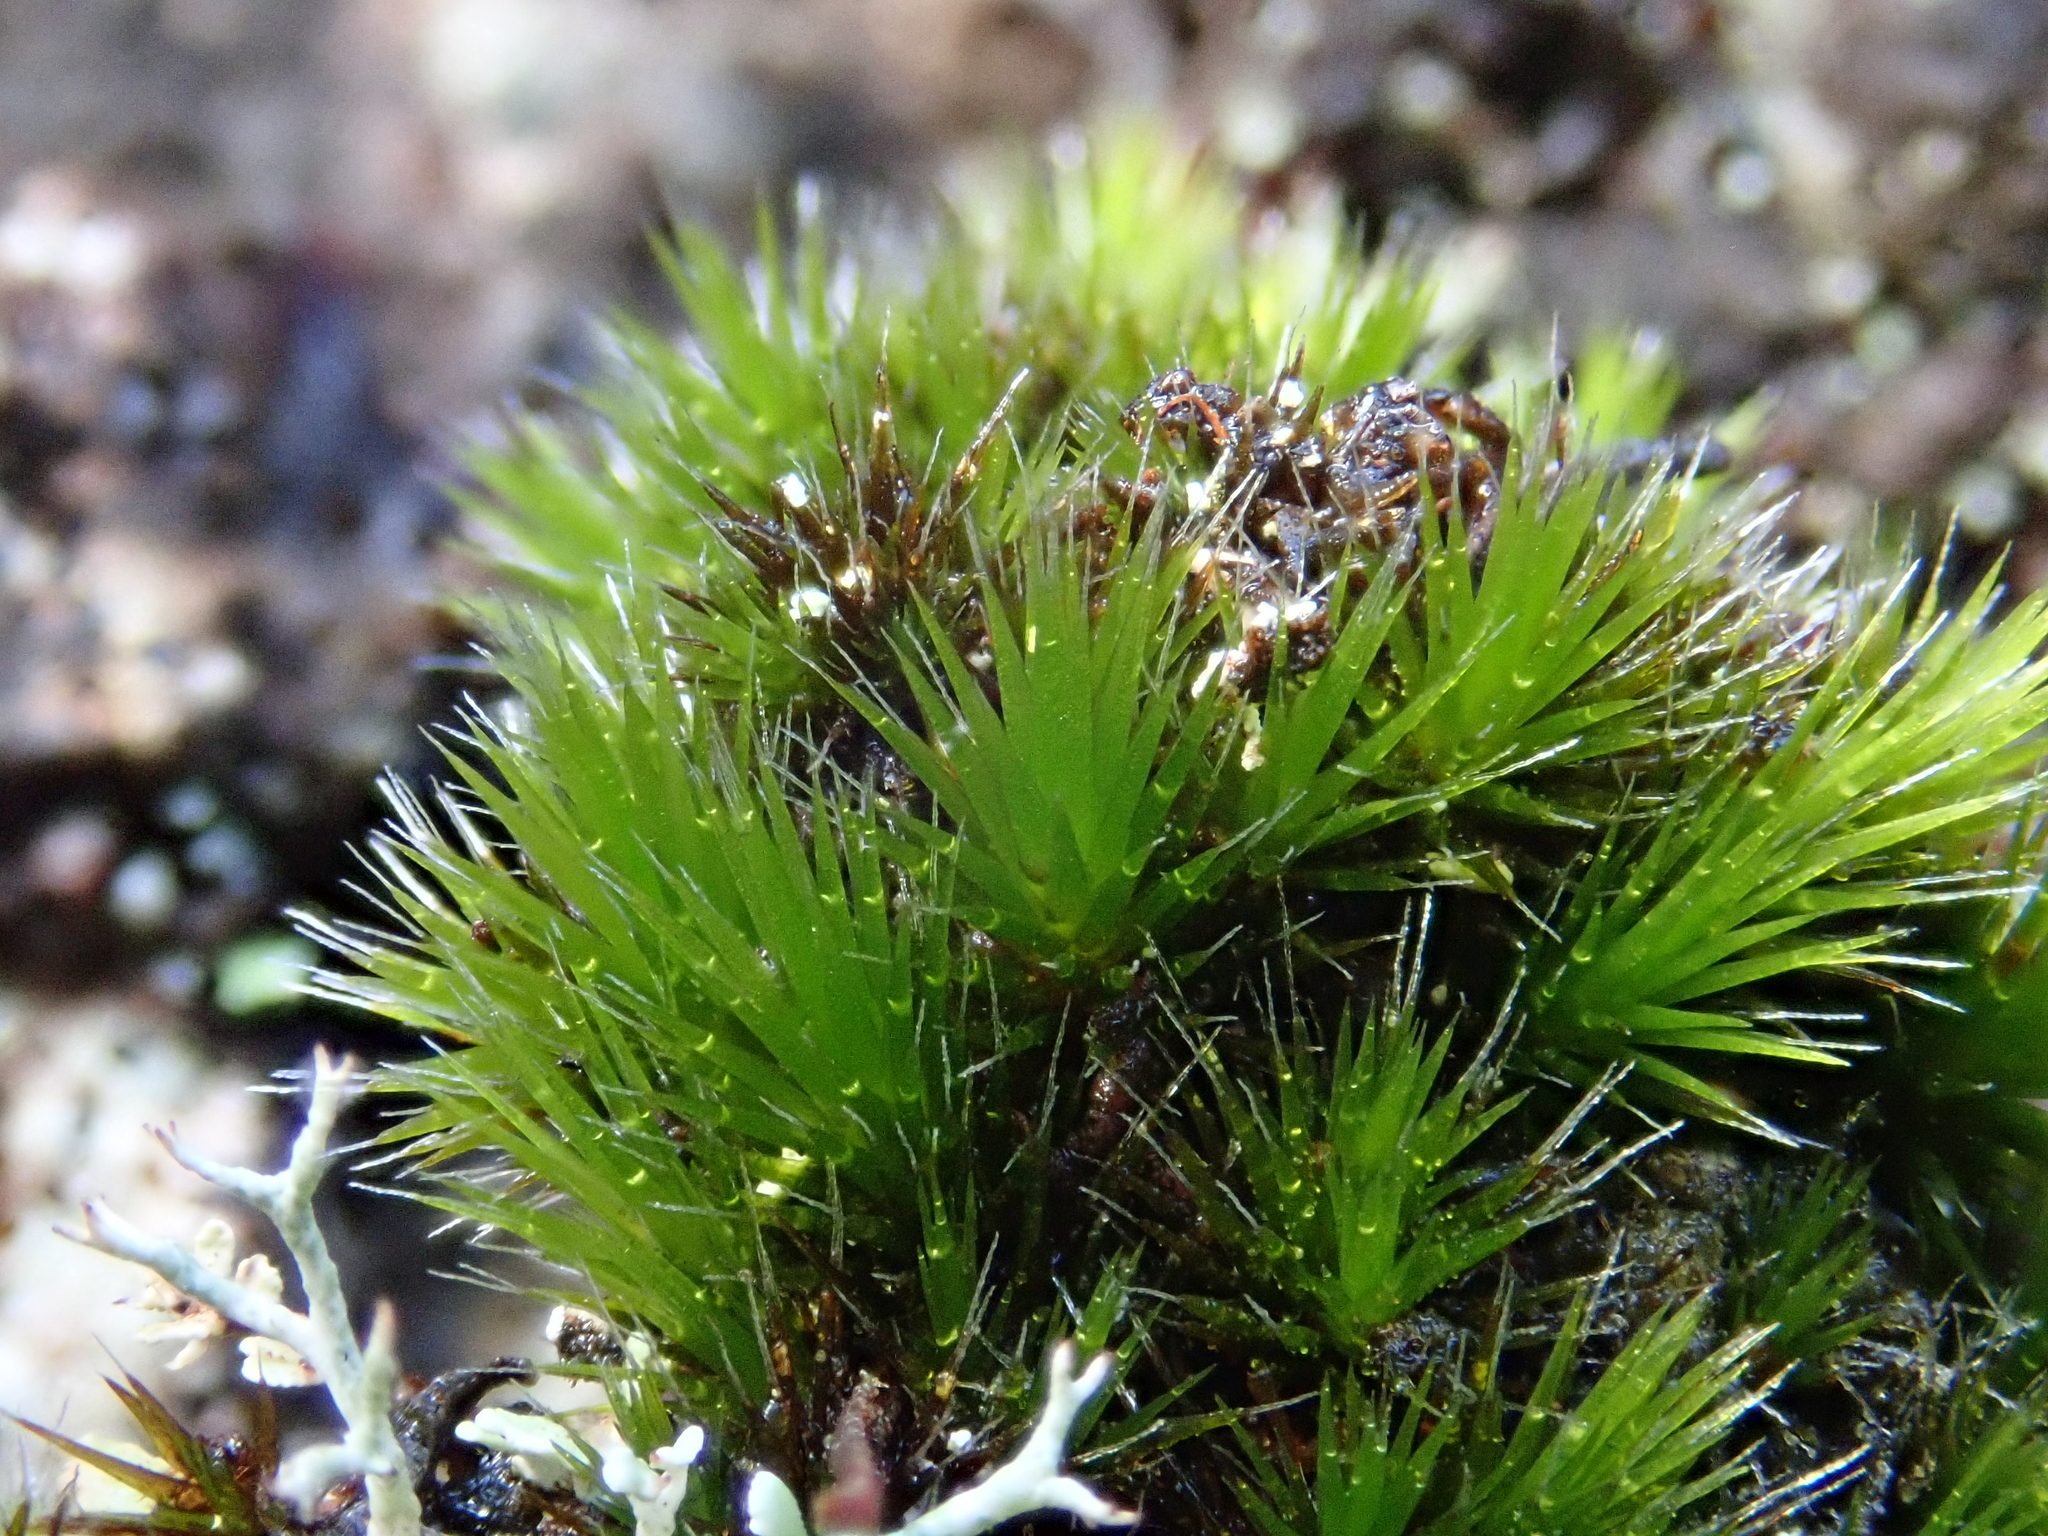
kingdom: Plantae
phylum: Bryophyta
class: Bryopsida
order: Dicranales
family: Leucobryaceae
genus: Campylopus
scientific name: Campylopus pilifer
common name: Campylopus moss
